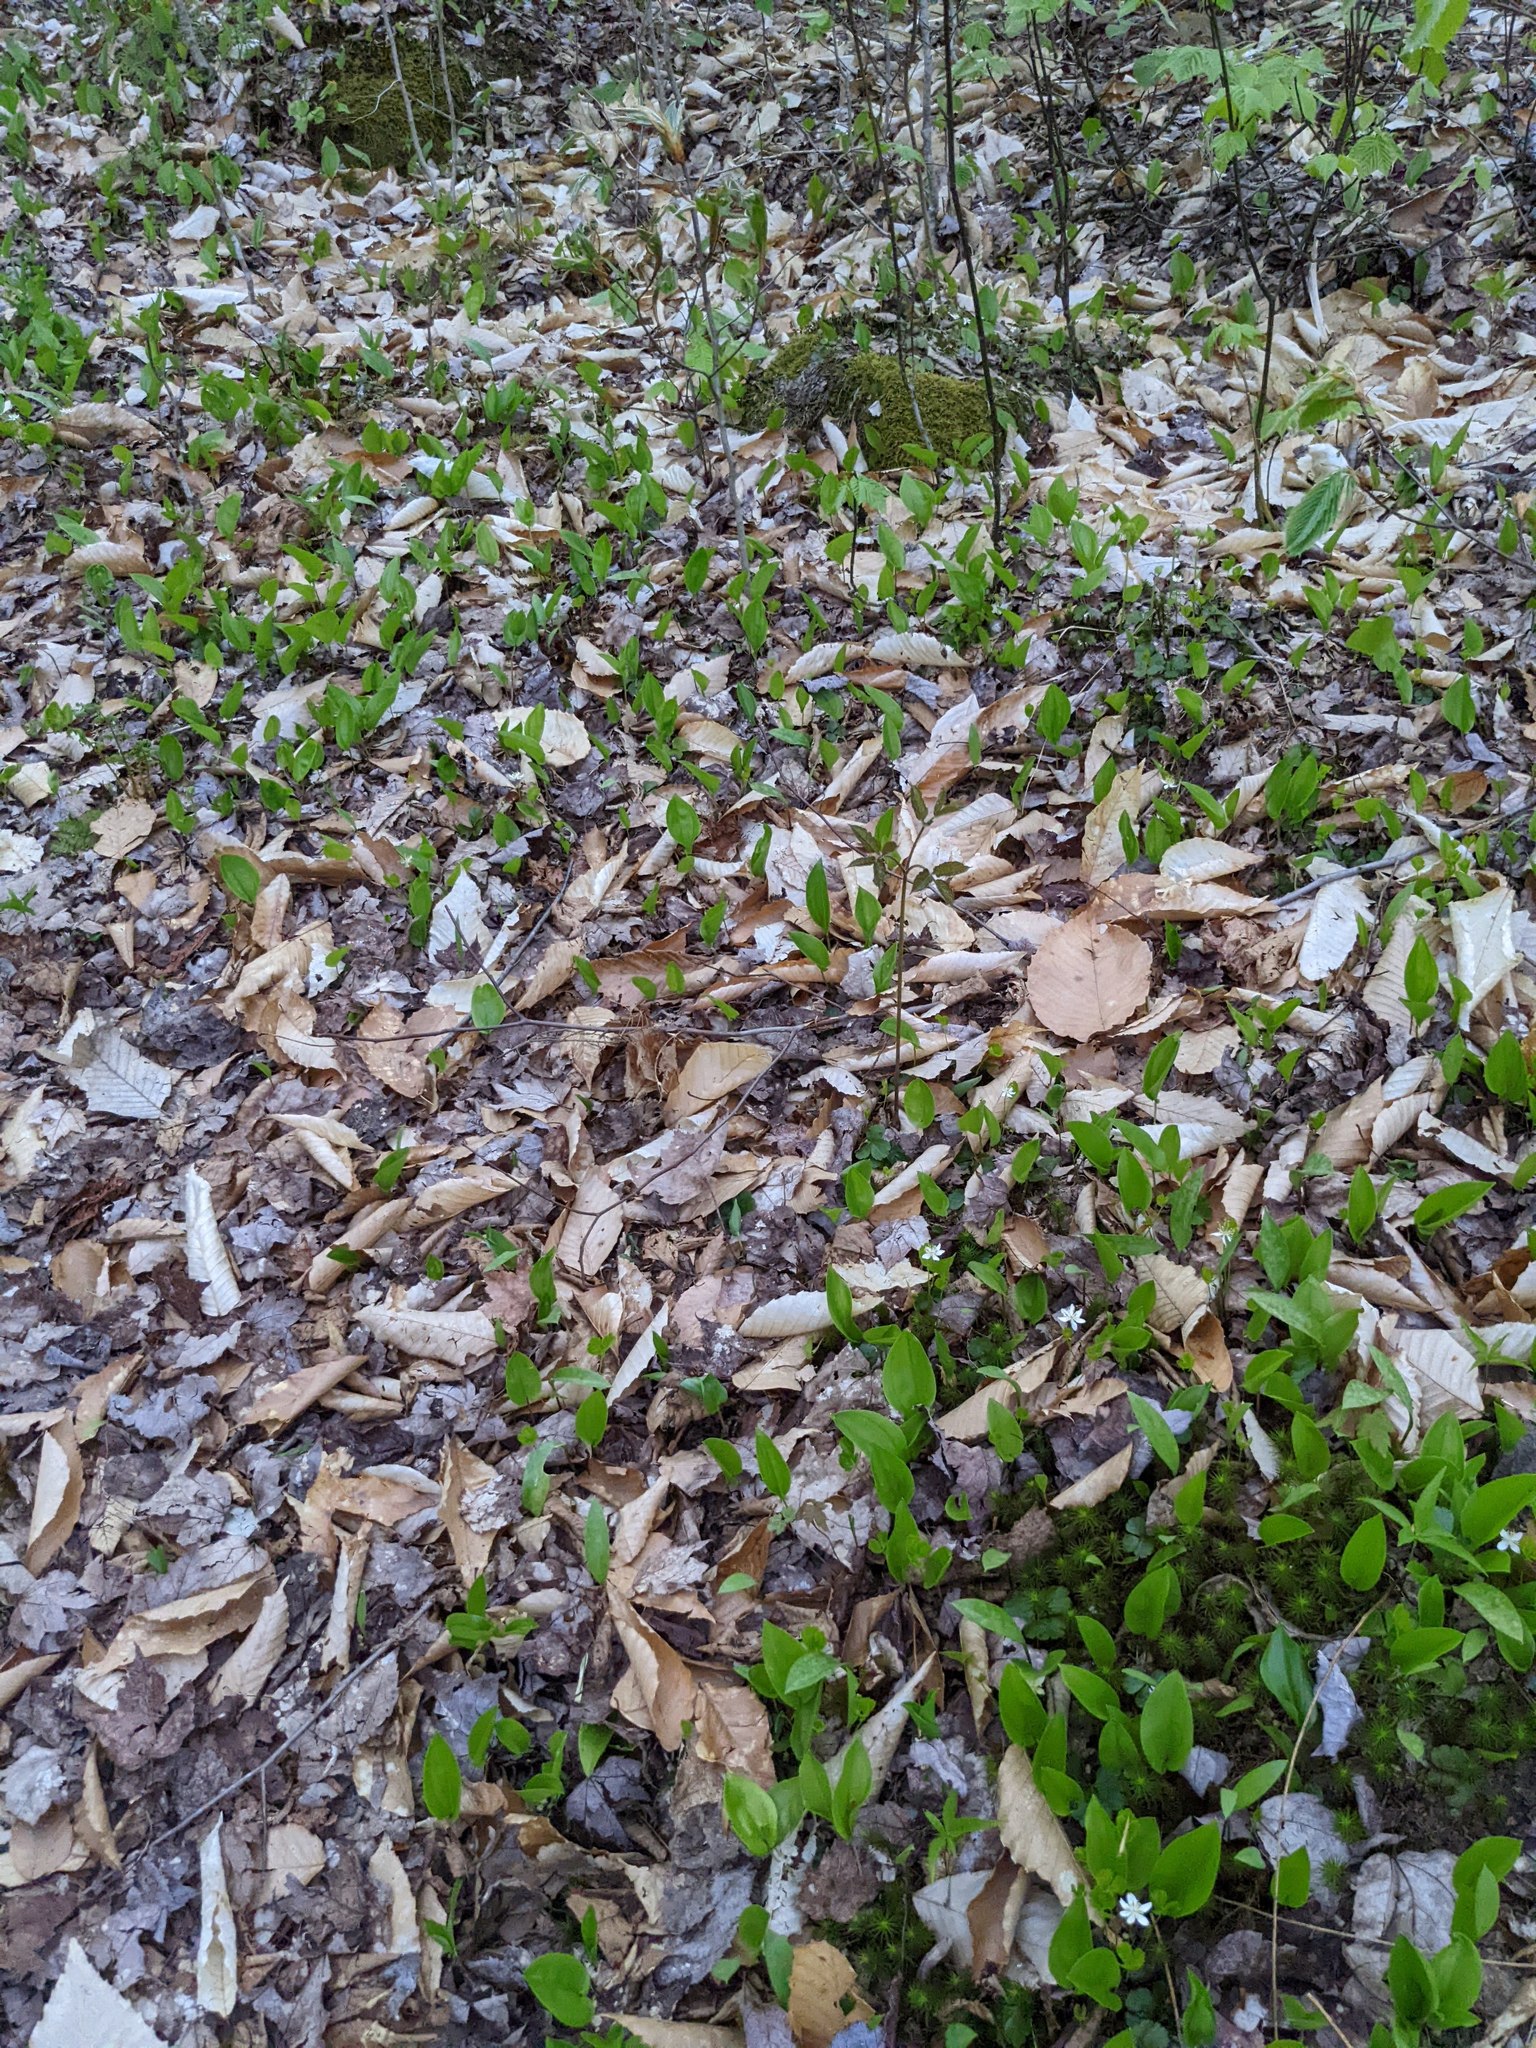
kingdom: Plantae
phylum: Tracheophyta
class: Magnoliopsida
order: Fagales
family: Fagaceae
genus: Fagus
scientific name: Fagus grandifolia
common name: American beech
